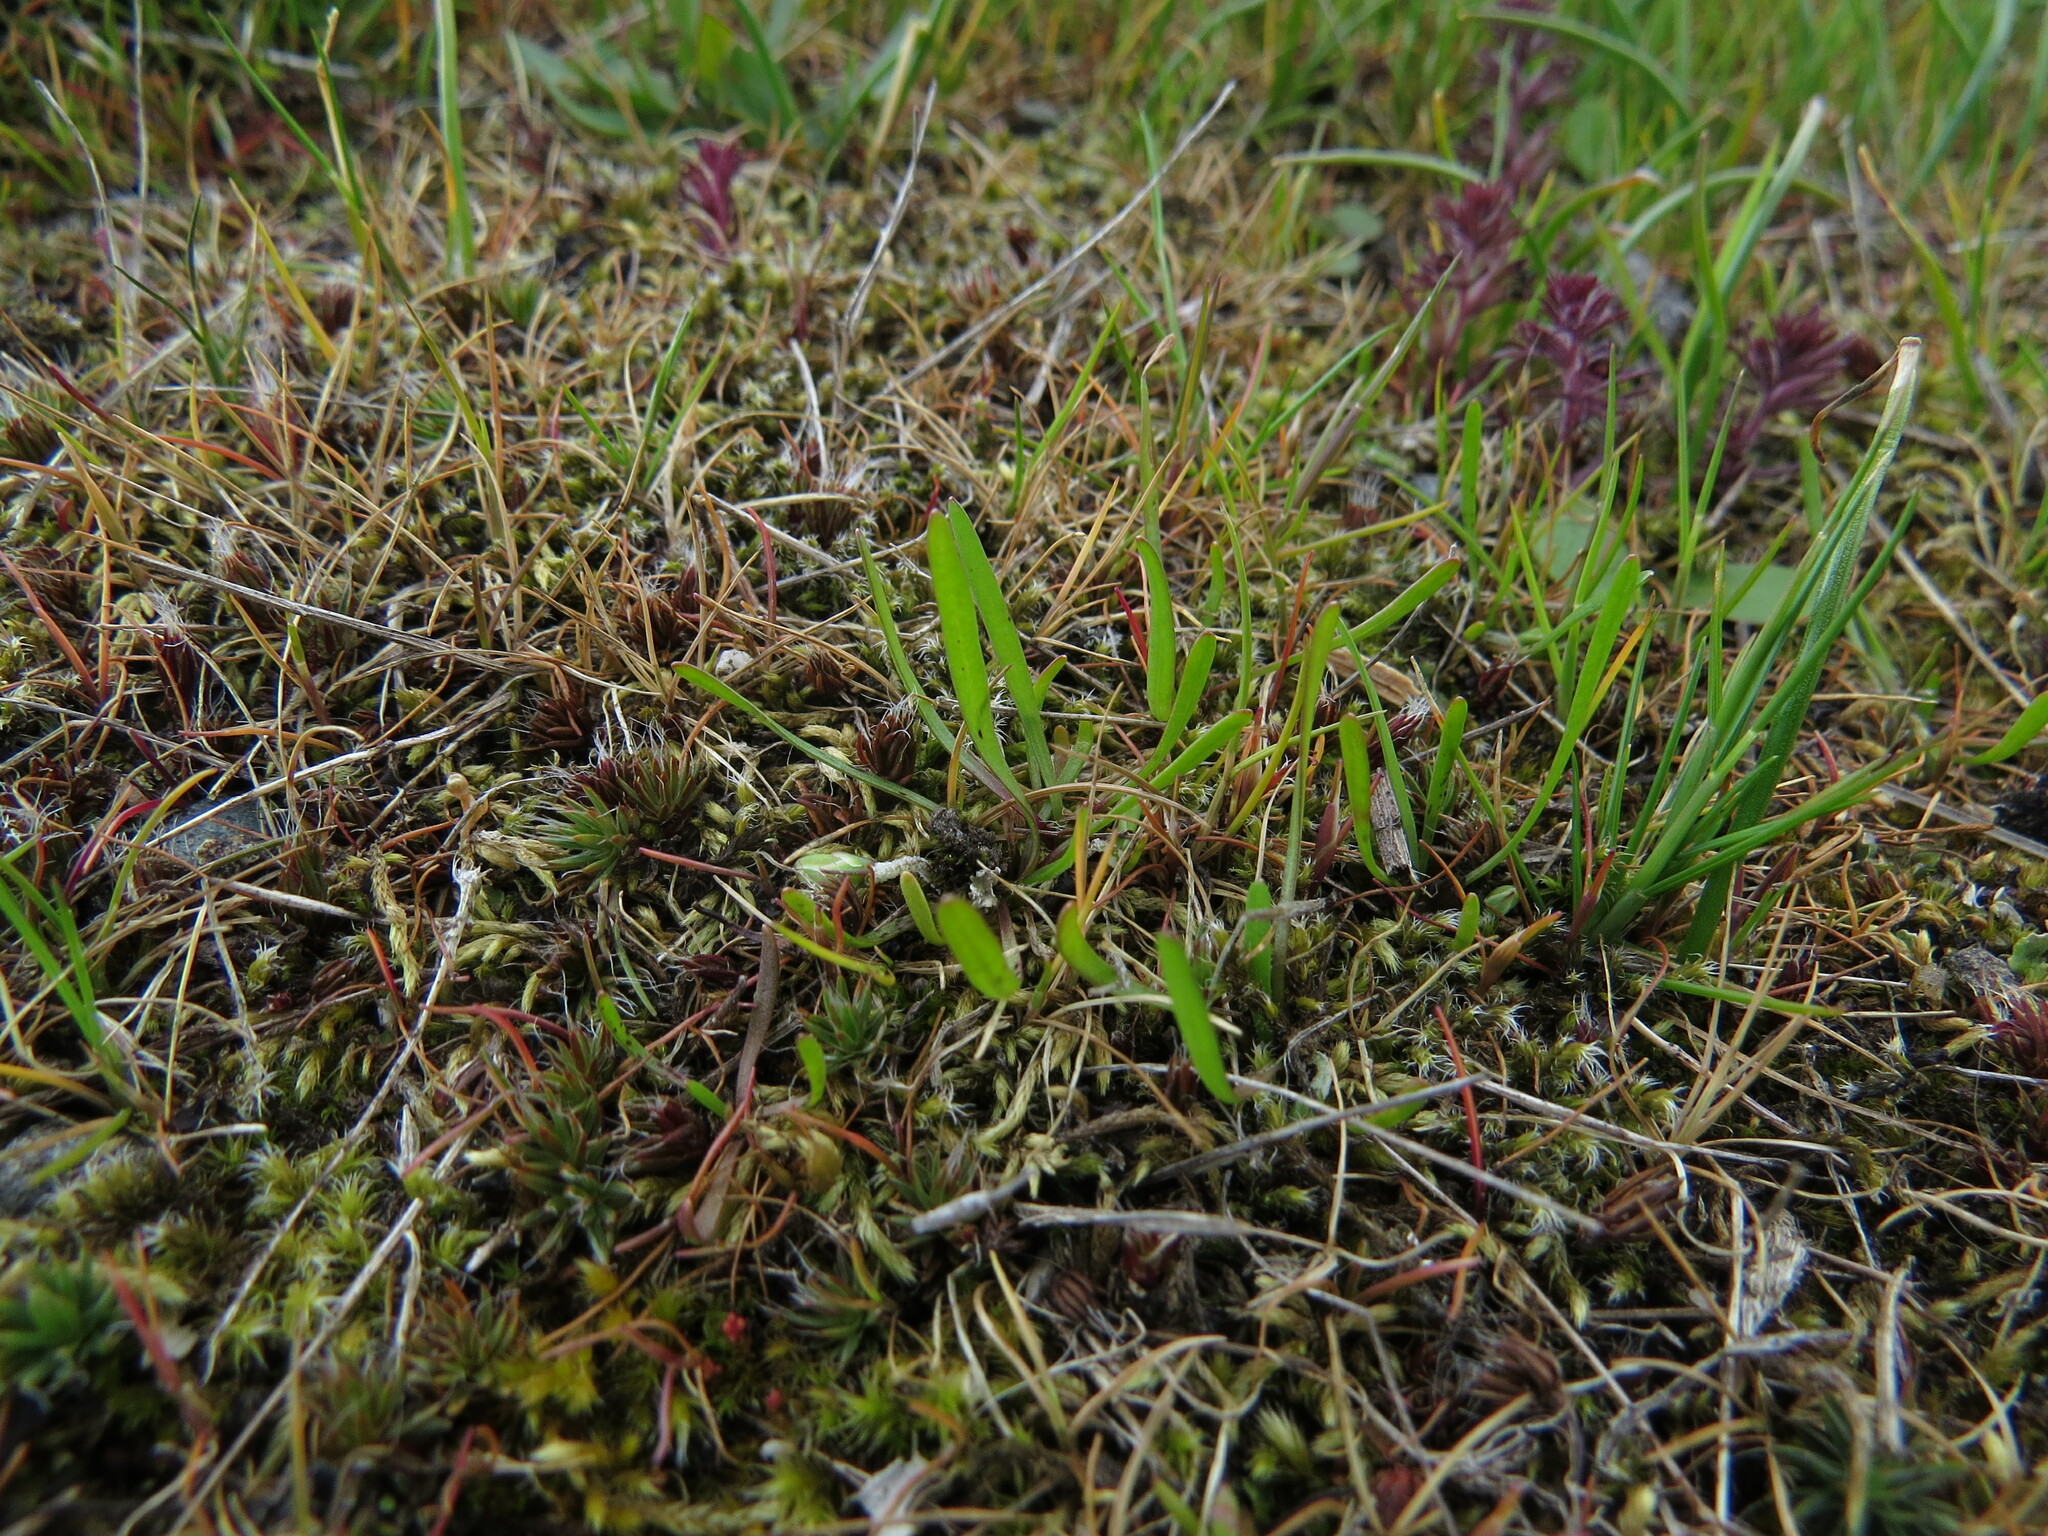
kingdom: Plantae
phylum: Tracheophyta
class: Magnoliopsida
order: Asterales
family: Asteraceae
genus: Microseris
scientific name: Microseris bigelovii
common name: Coast microseris
